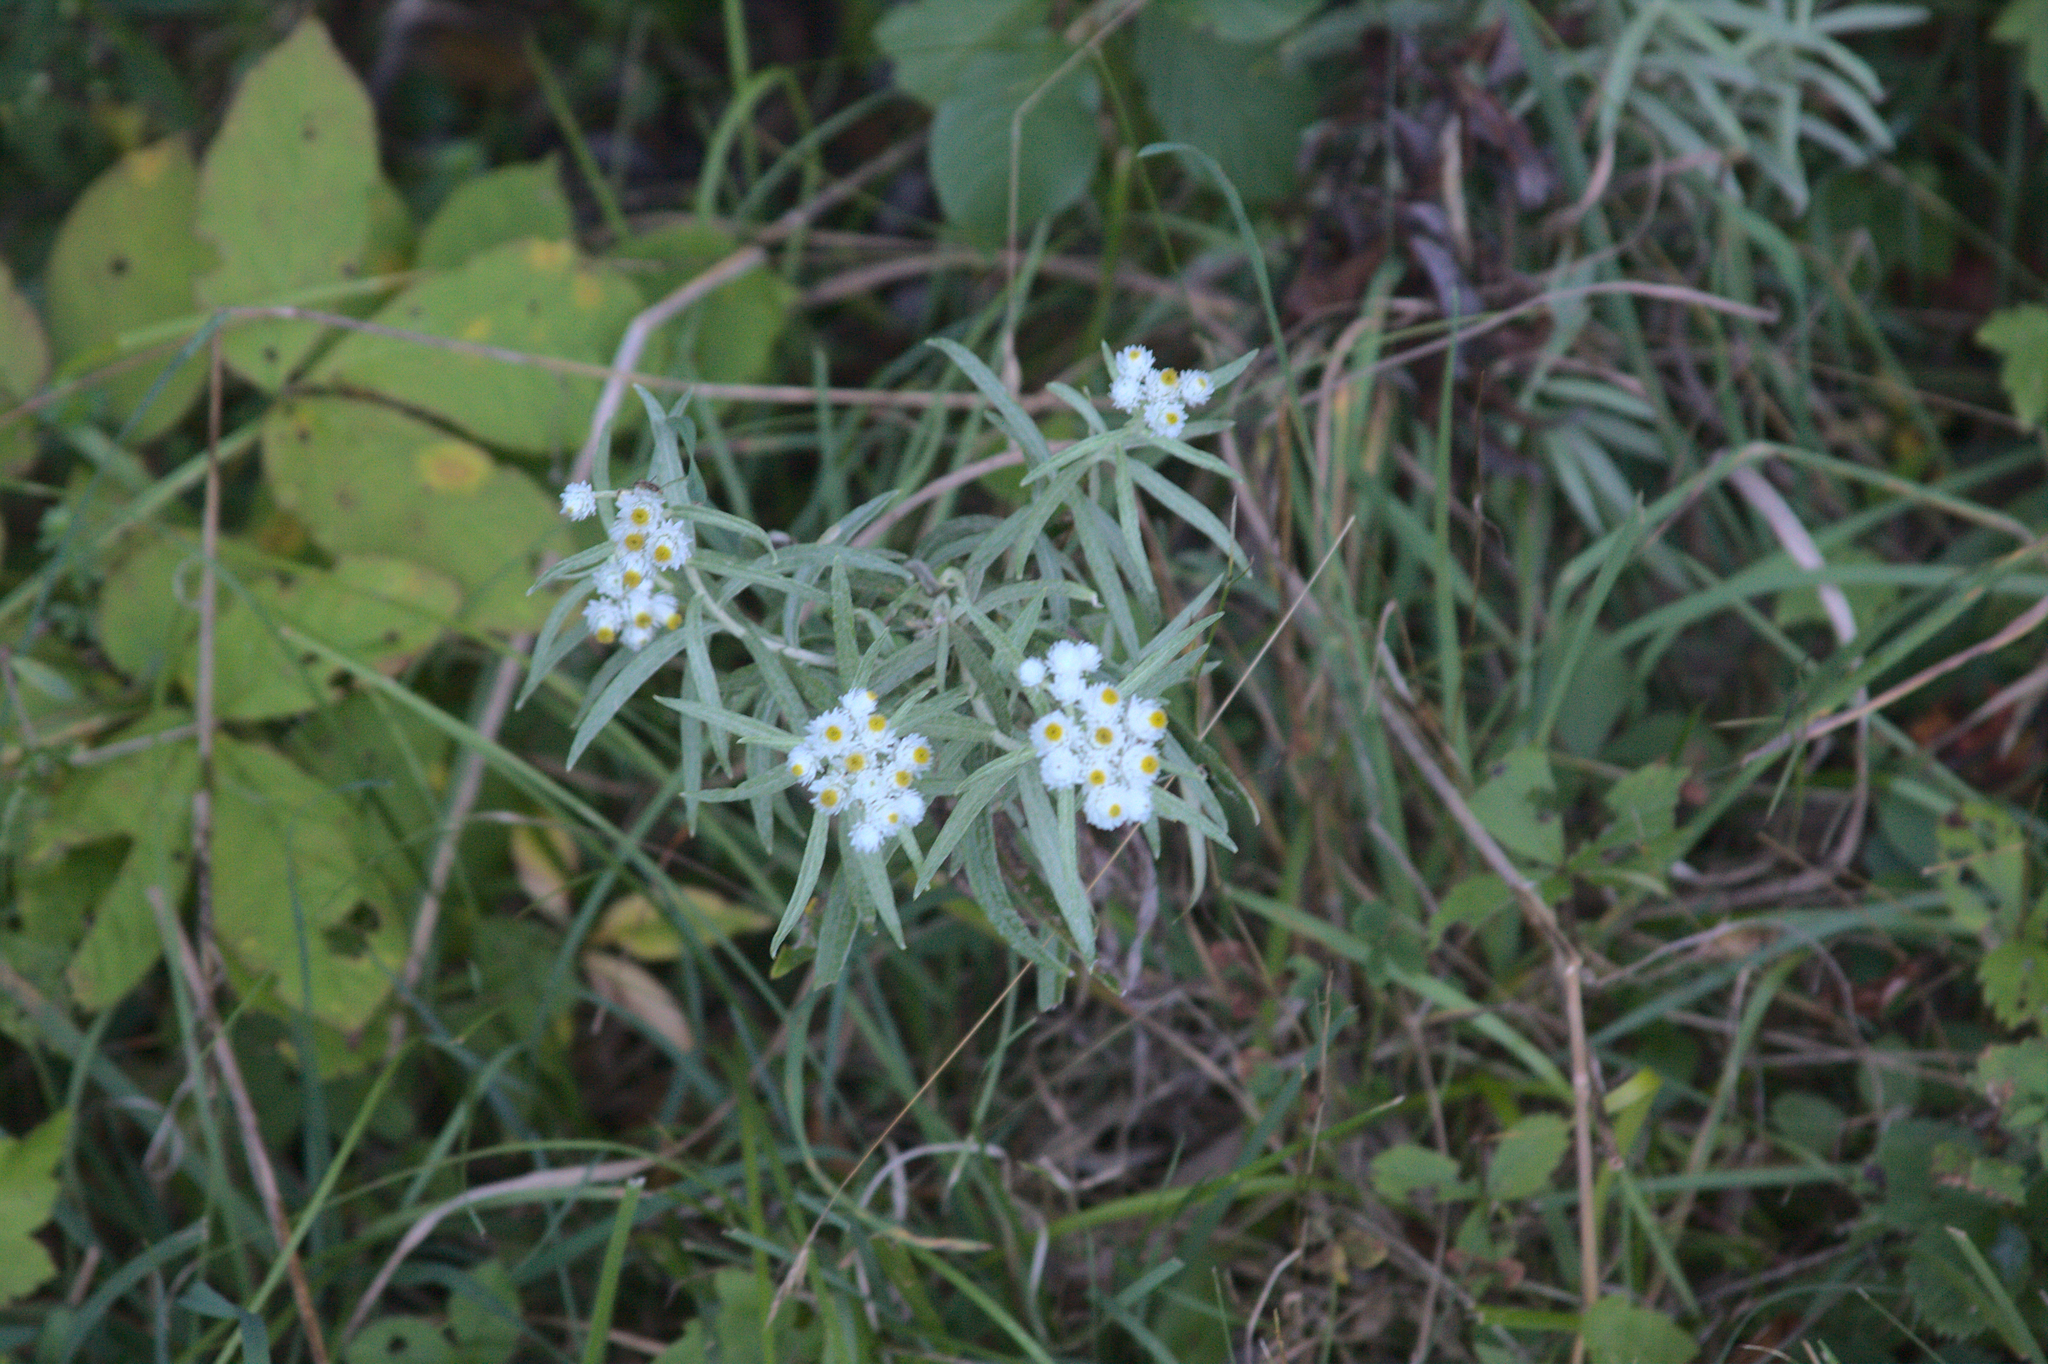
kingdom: Plantae
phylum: Tracheophyta
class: Magnoliopsida
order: Asterales
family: Asteraceae
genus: Anaphalis
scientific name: Anaphalis margaritacea
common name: Pearly everlasting
